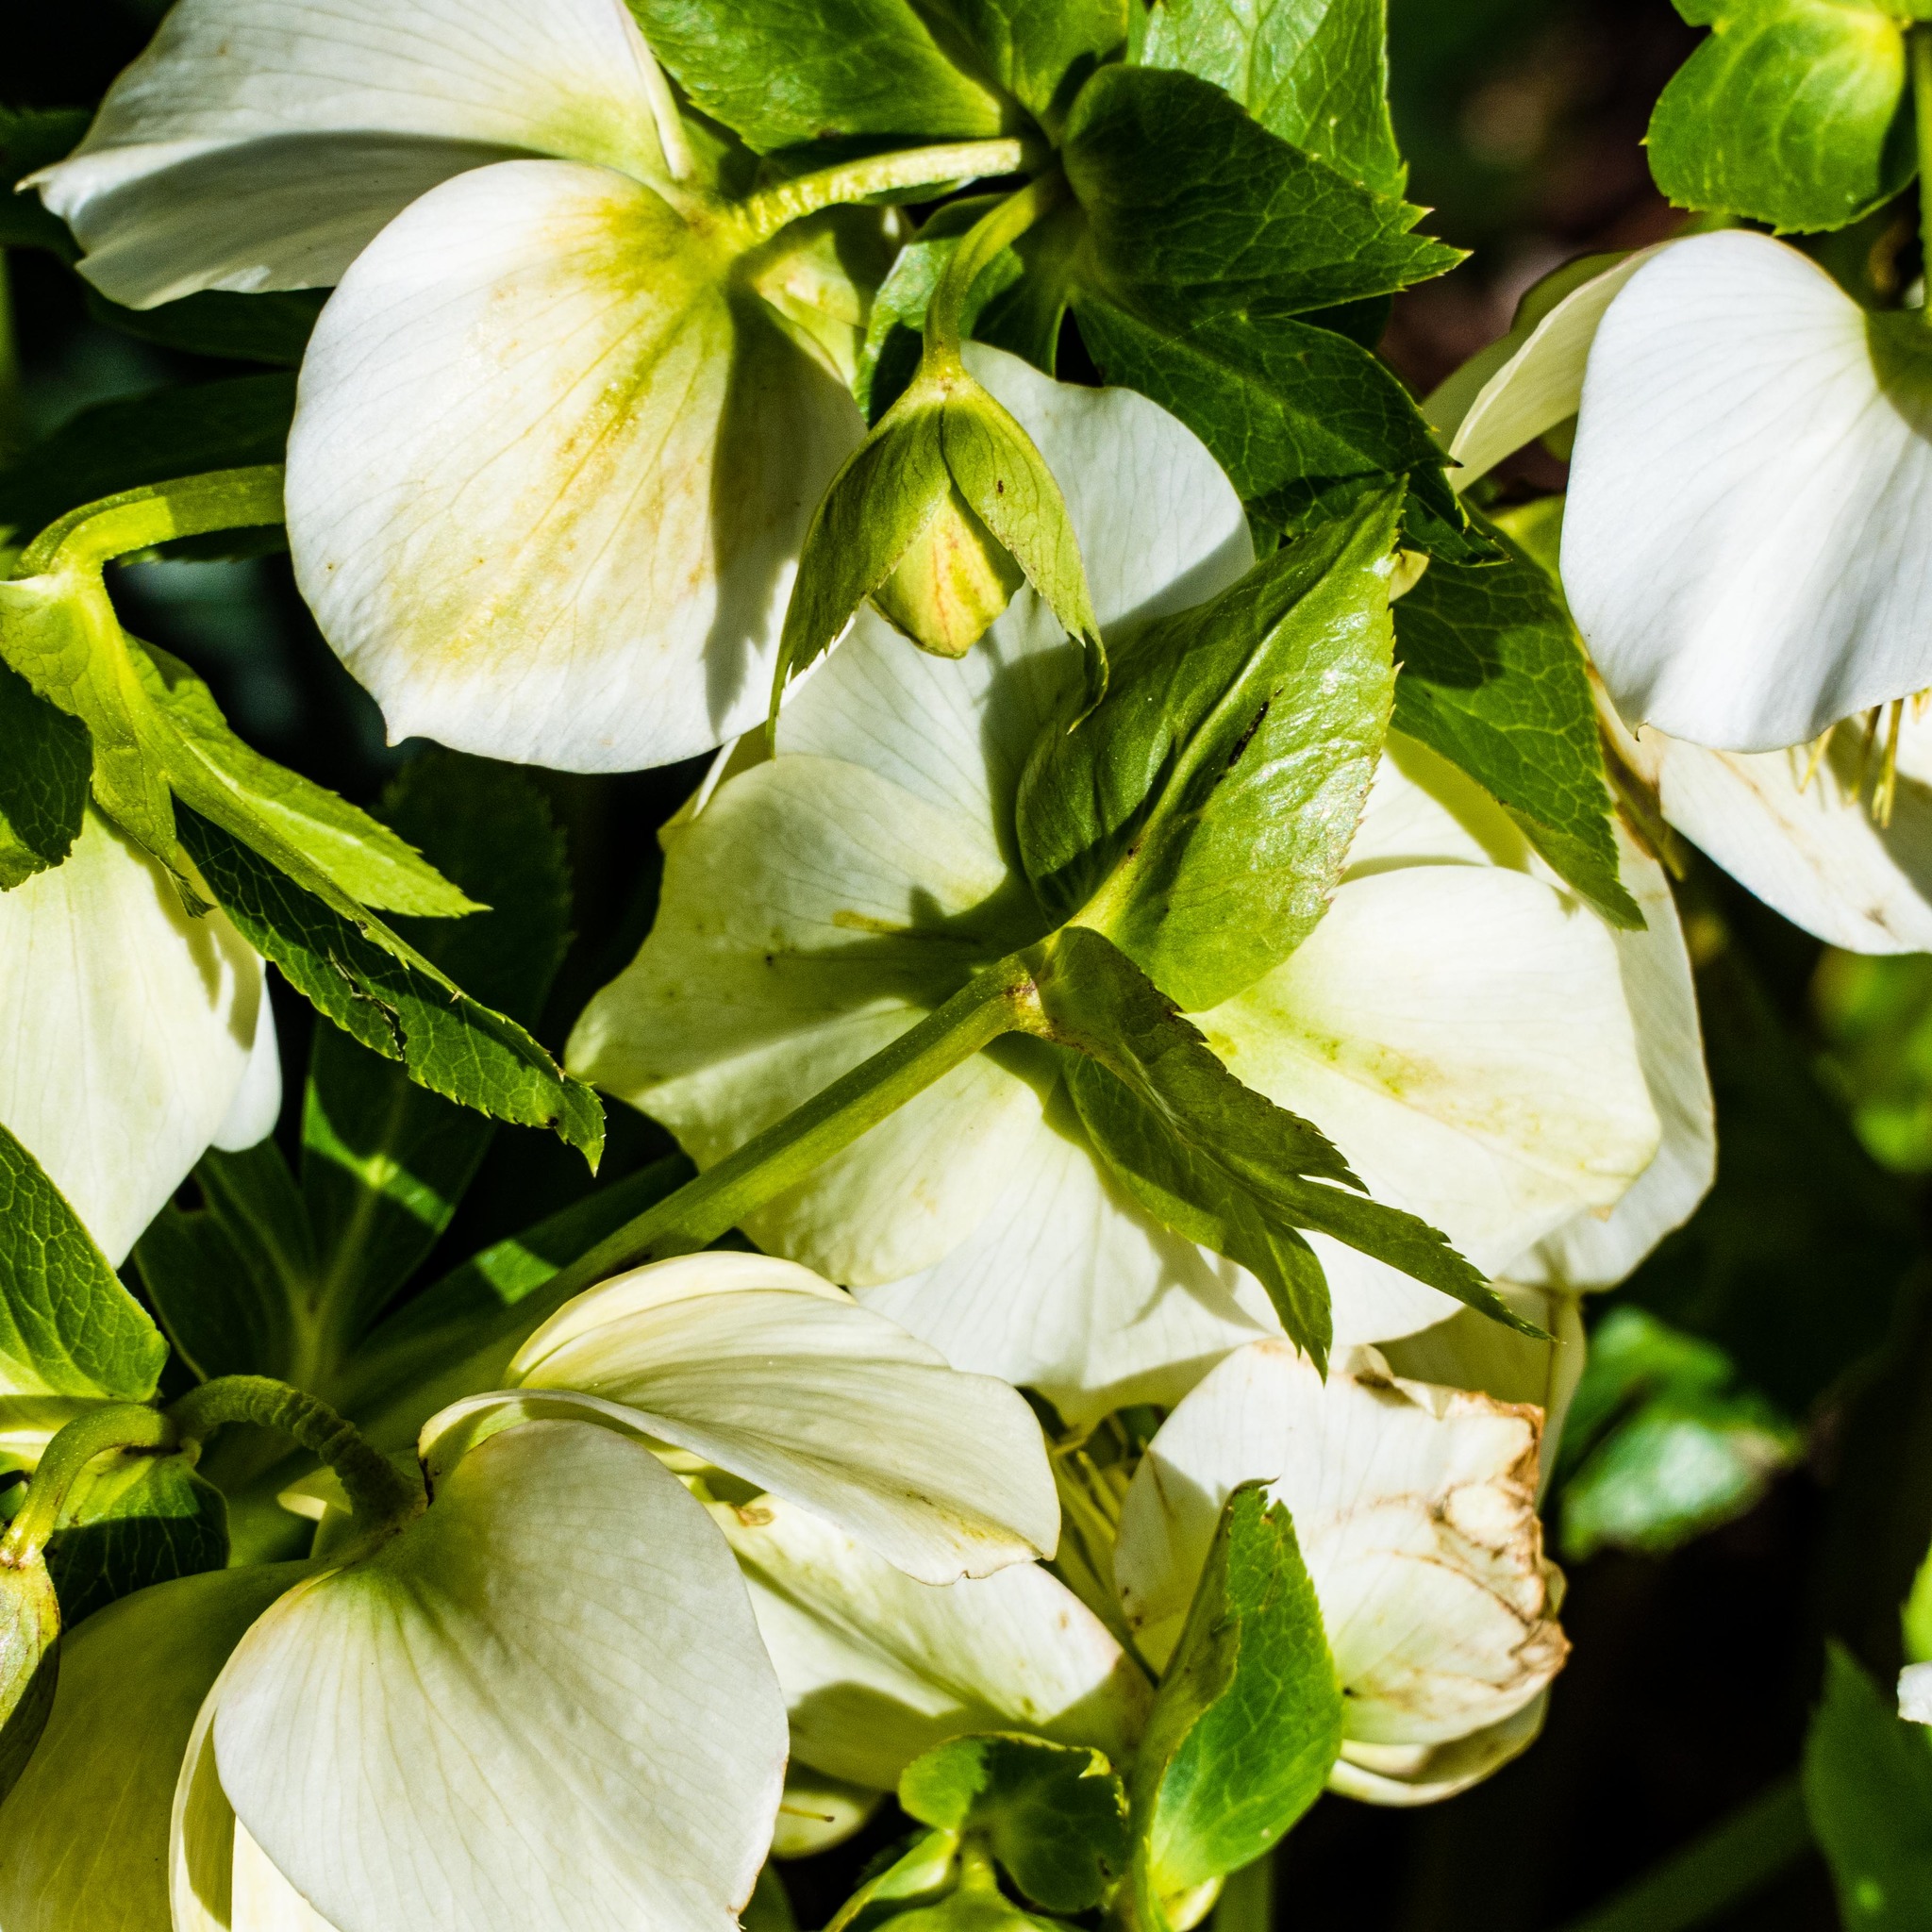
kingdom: Plantae
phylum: Tracheophyta
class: Magnoliopsida
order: Ranunculales
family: Ranunculaceae
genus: Helleborus
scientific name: Helleborus orientalis
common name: Lenten-rose
